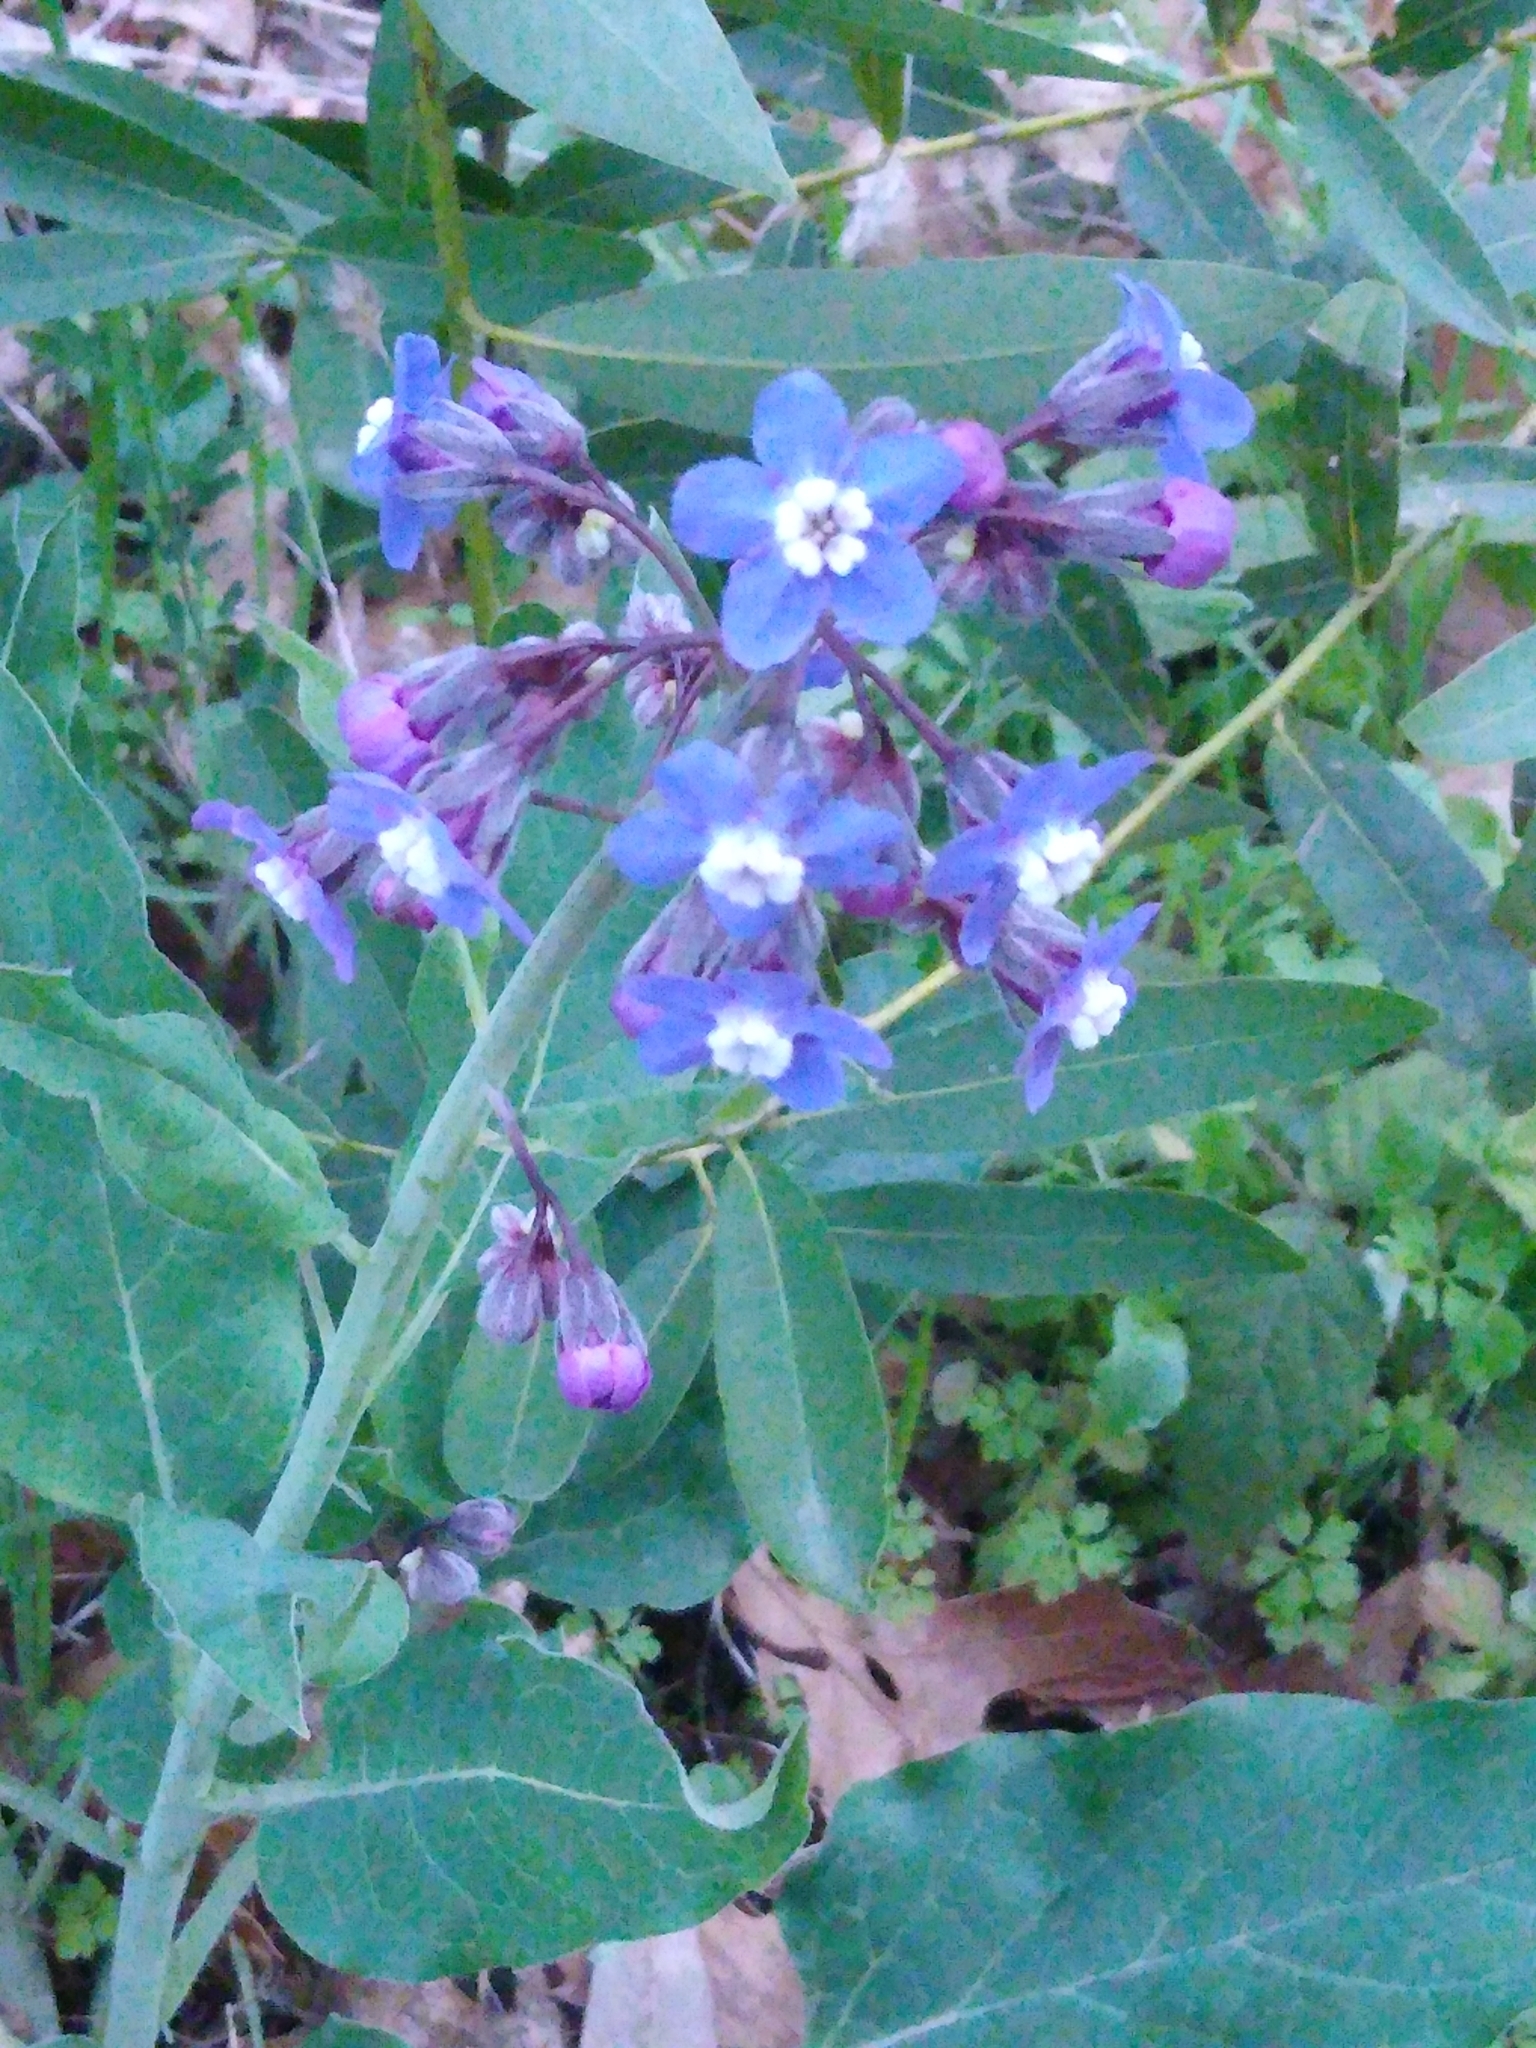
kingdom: Plantae
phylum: Tracheophyta
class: Magnoliopsida
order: Boraginales
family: Boraginaceae
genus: Adelinia
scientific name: Adelinia grande
